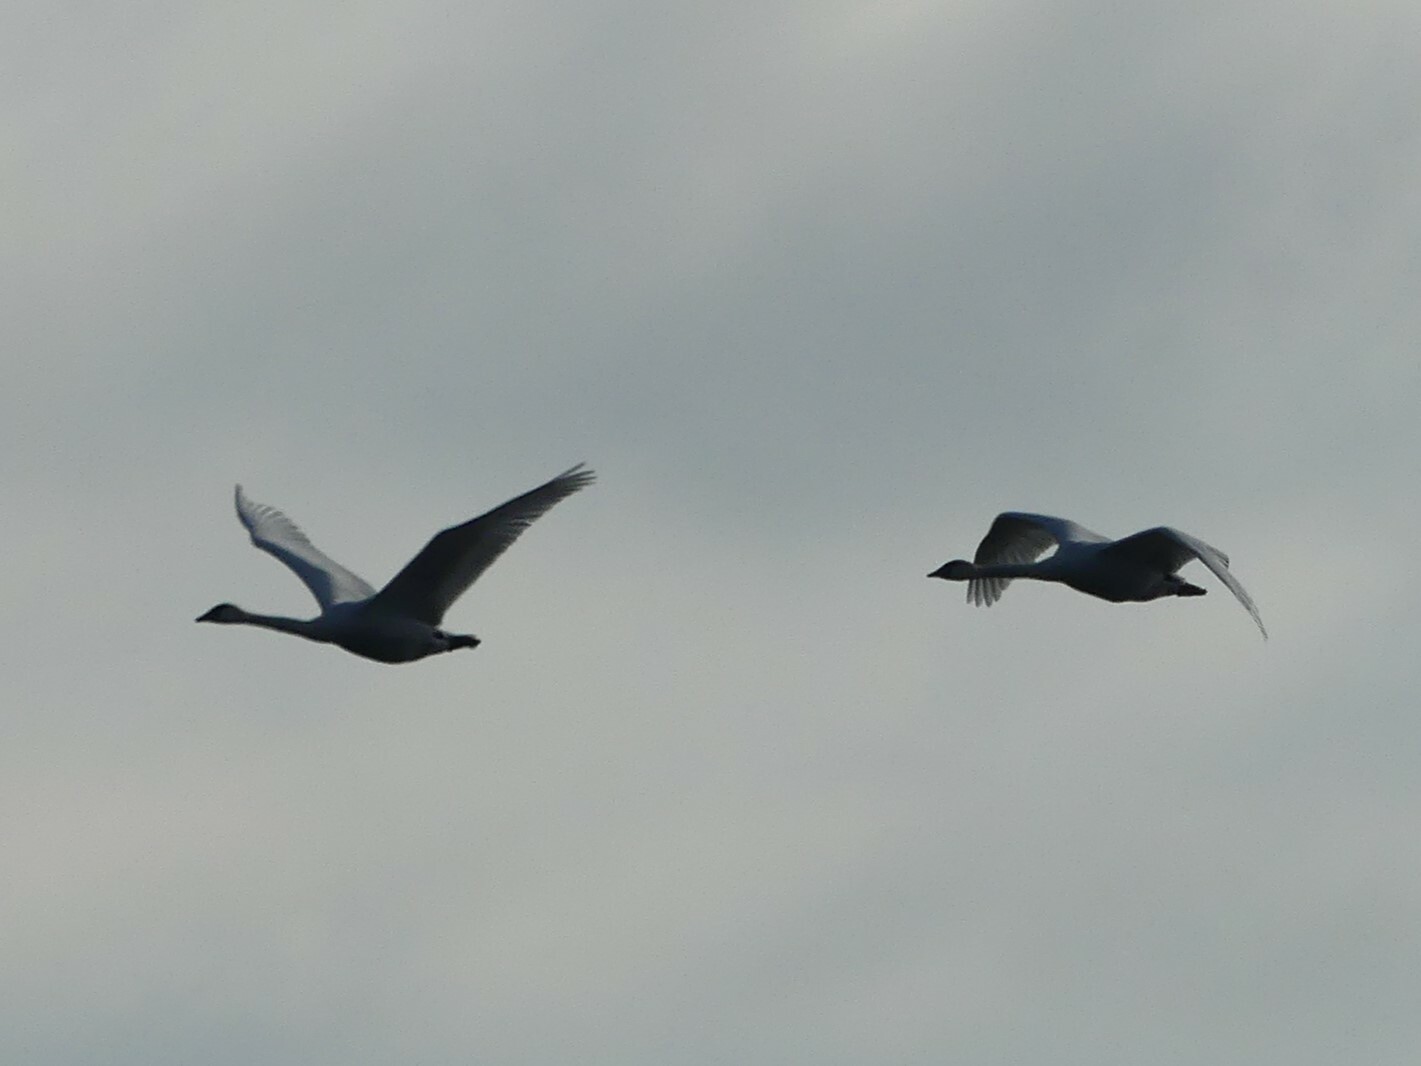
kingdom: Animalia
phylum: Chordata
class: Aves
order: Anseriformes
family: Anatidae
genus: Cygnus
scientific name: Cygnus buccinator
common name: Trumpeter swan
